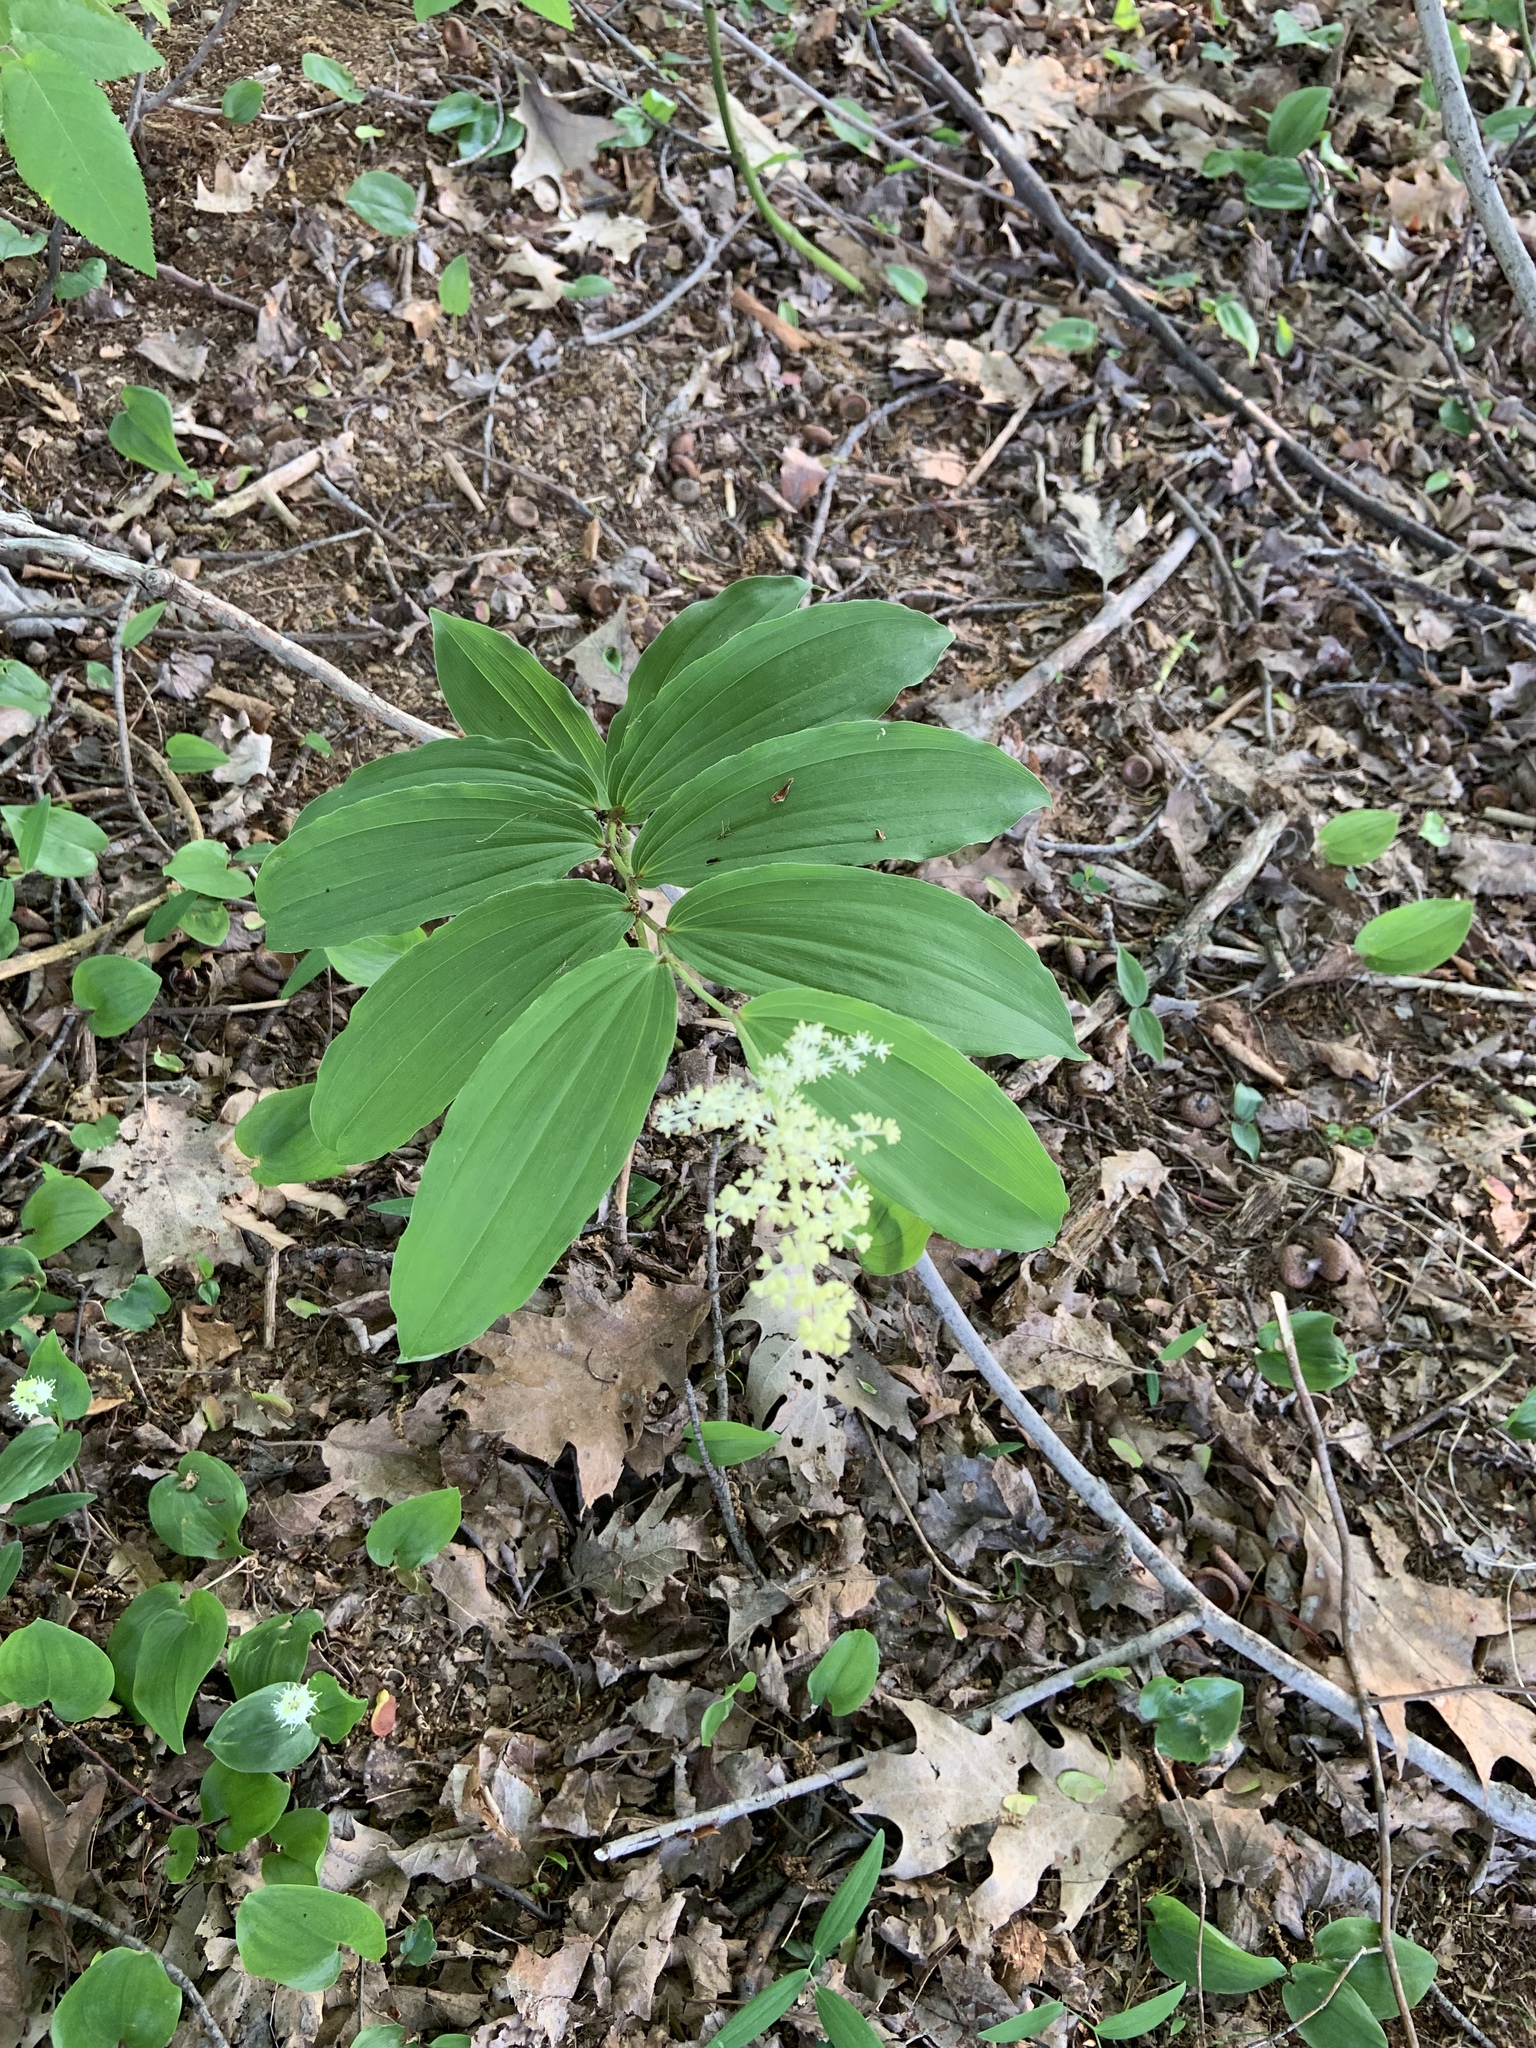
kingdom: Plantae
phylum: Tracheophyta
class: Liliopsida
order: Asparagales
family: Asparagaceae
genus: Maianthemum
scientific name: Maianthemum racemosum
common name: False spikenard
